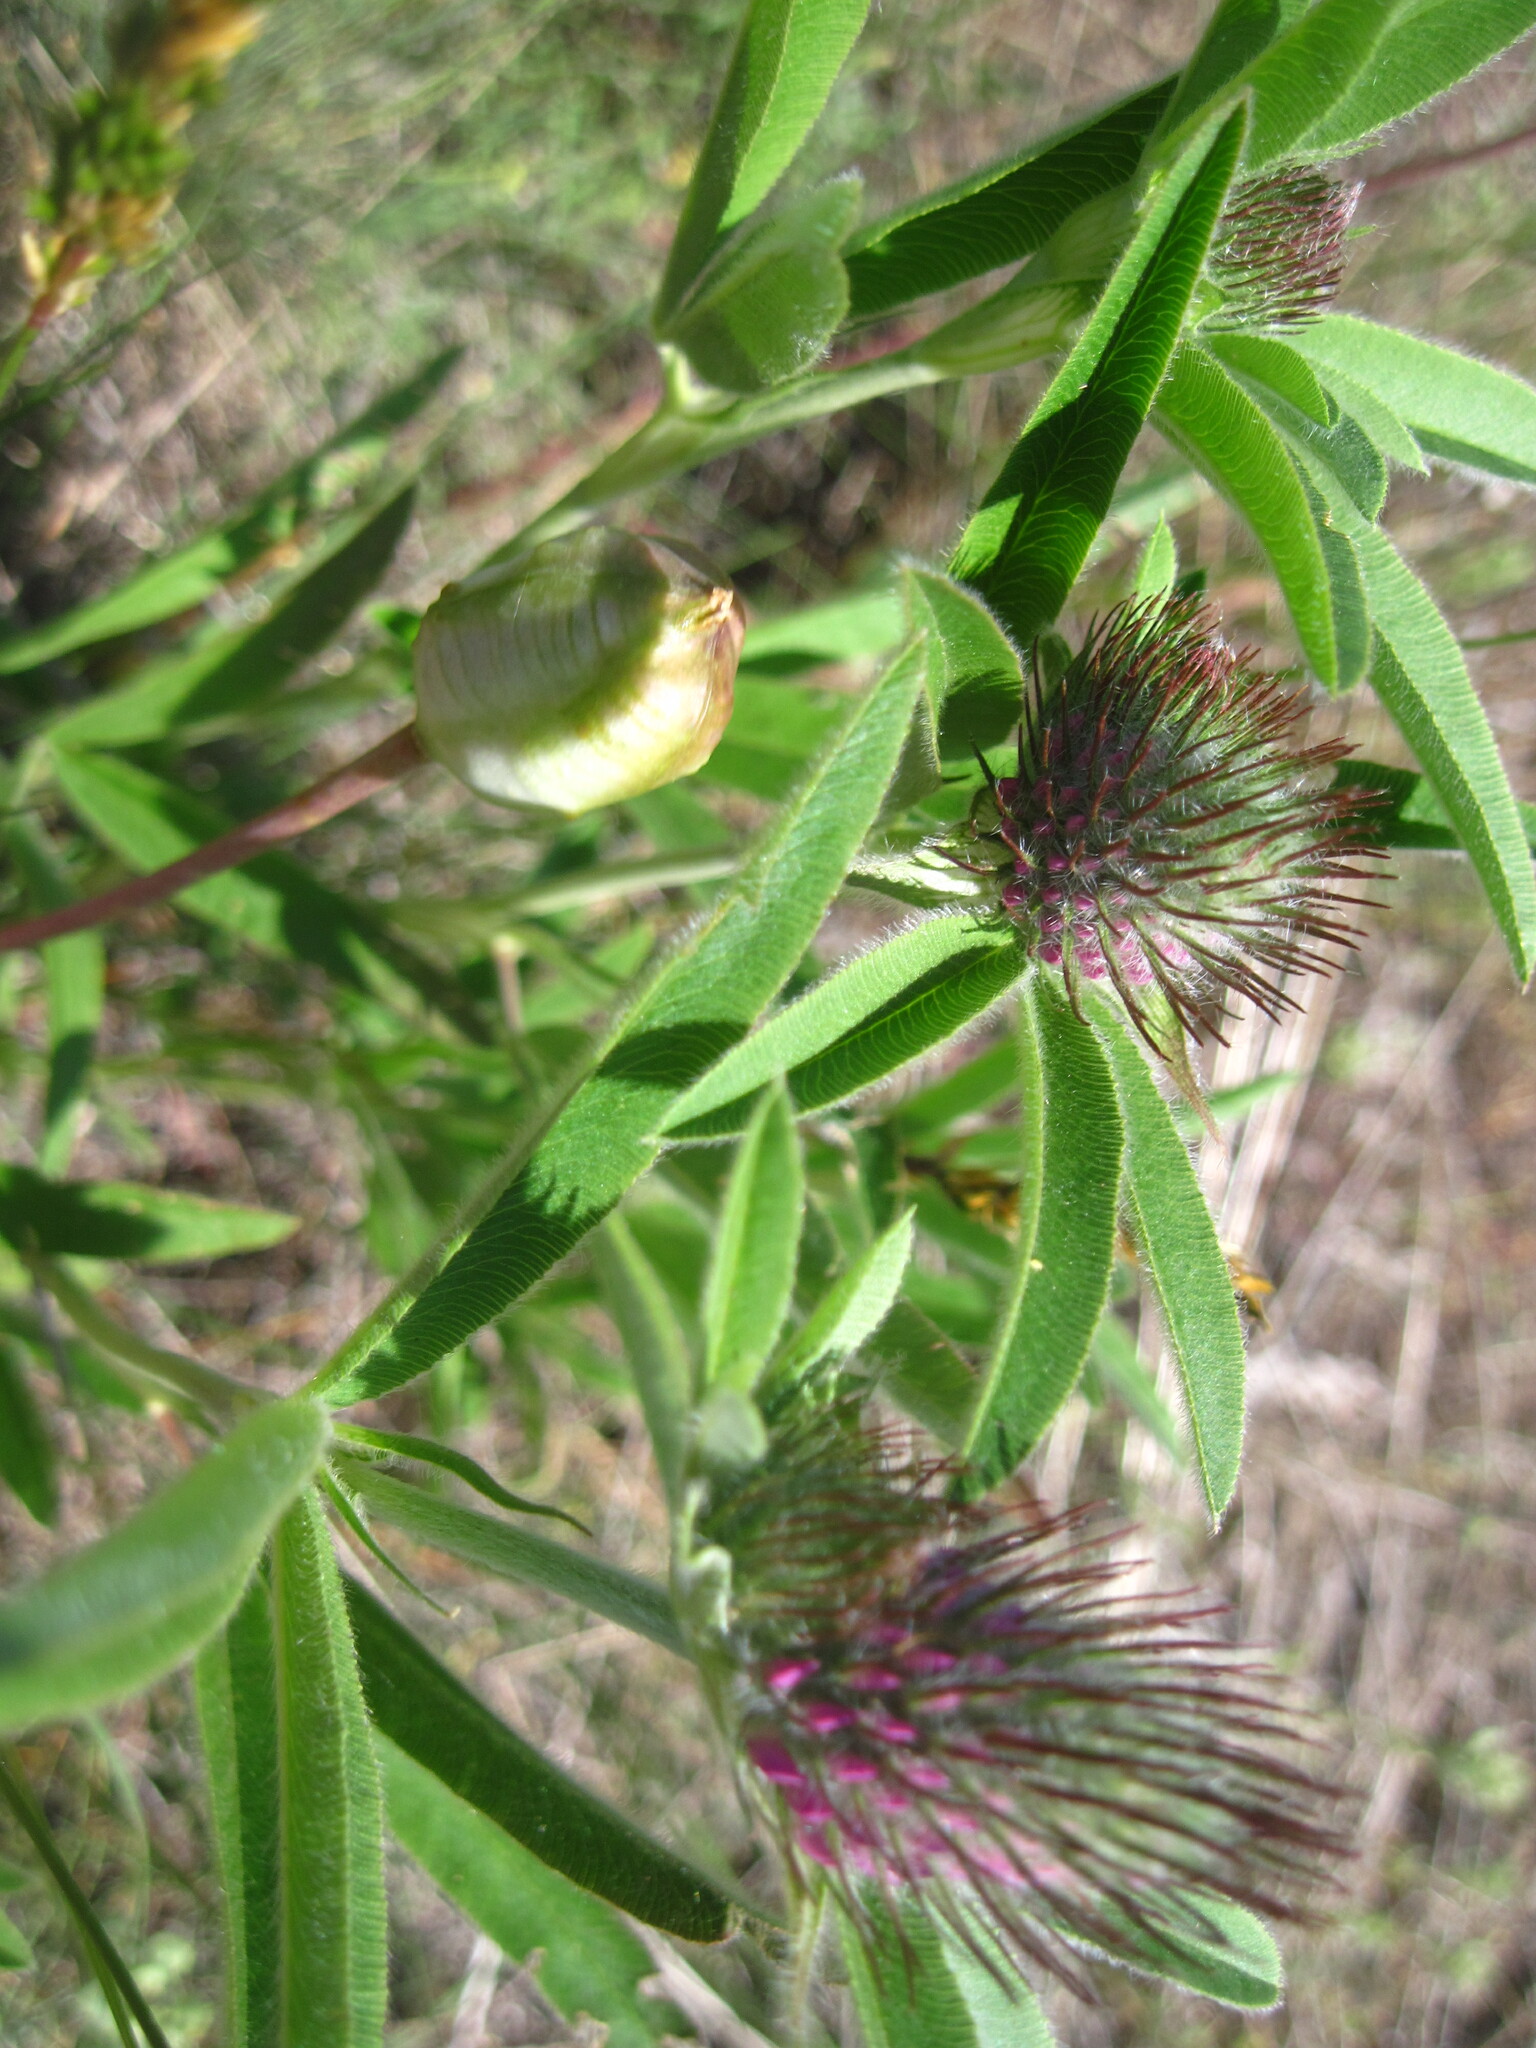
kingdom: Plantae
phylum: Tracheophyta
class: Magnoliopsida
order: Fabales
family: Fabaceae
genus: Trifolium
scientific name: Trifolium alpestre
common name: Owl-head clover
